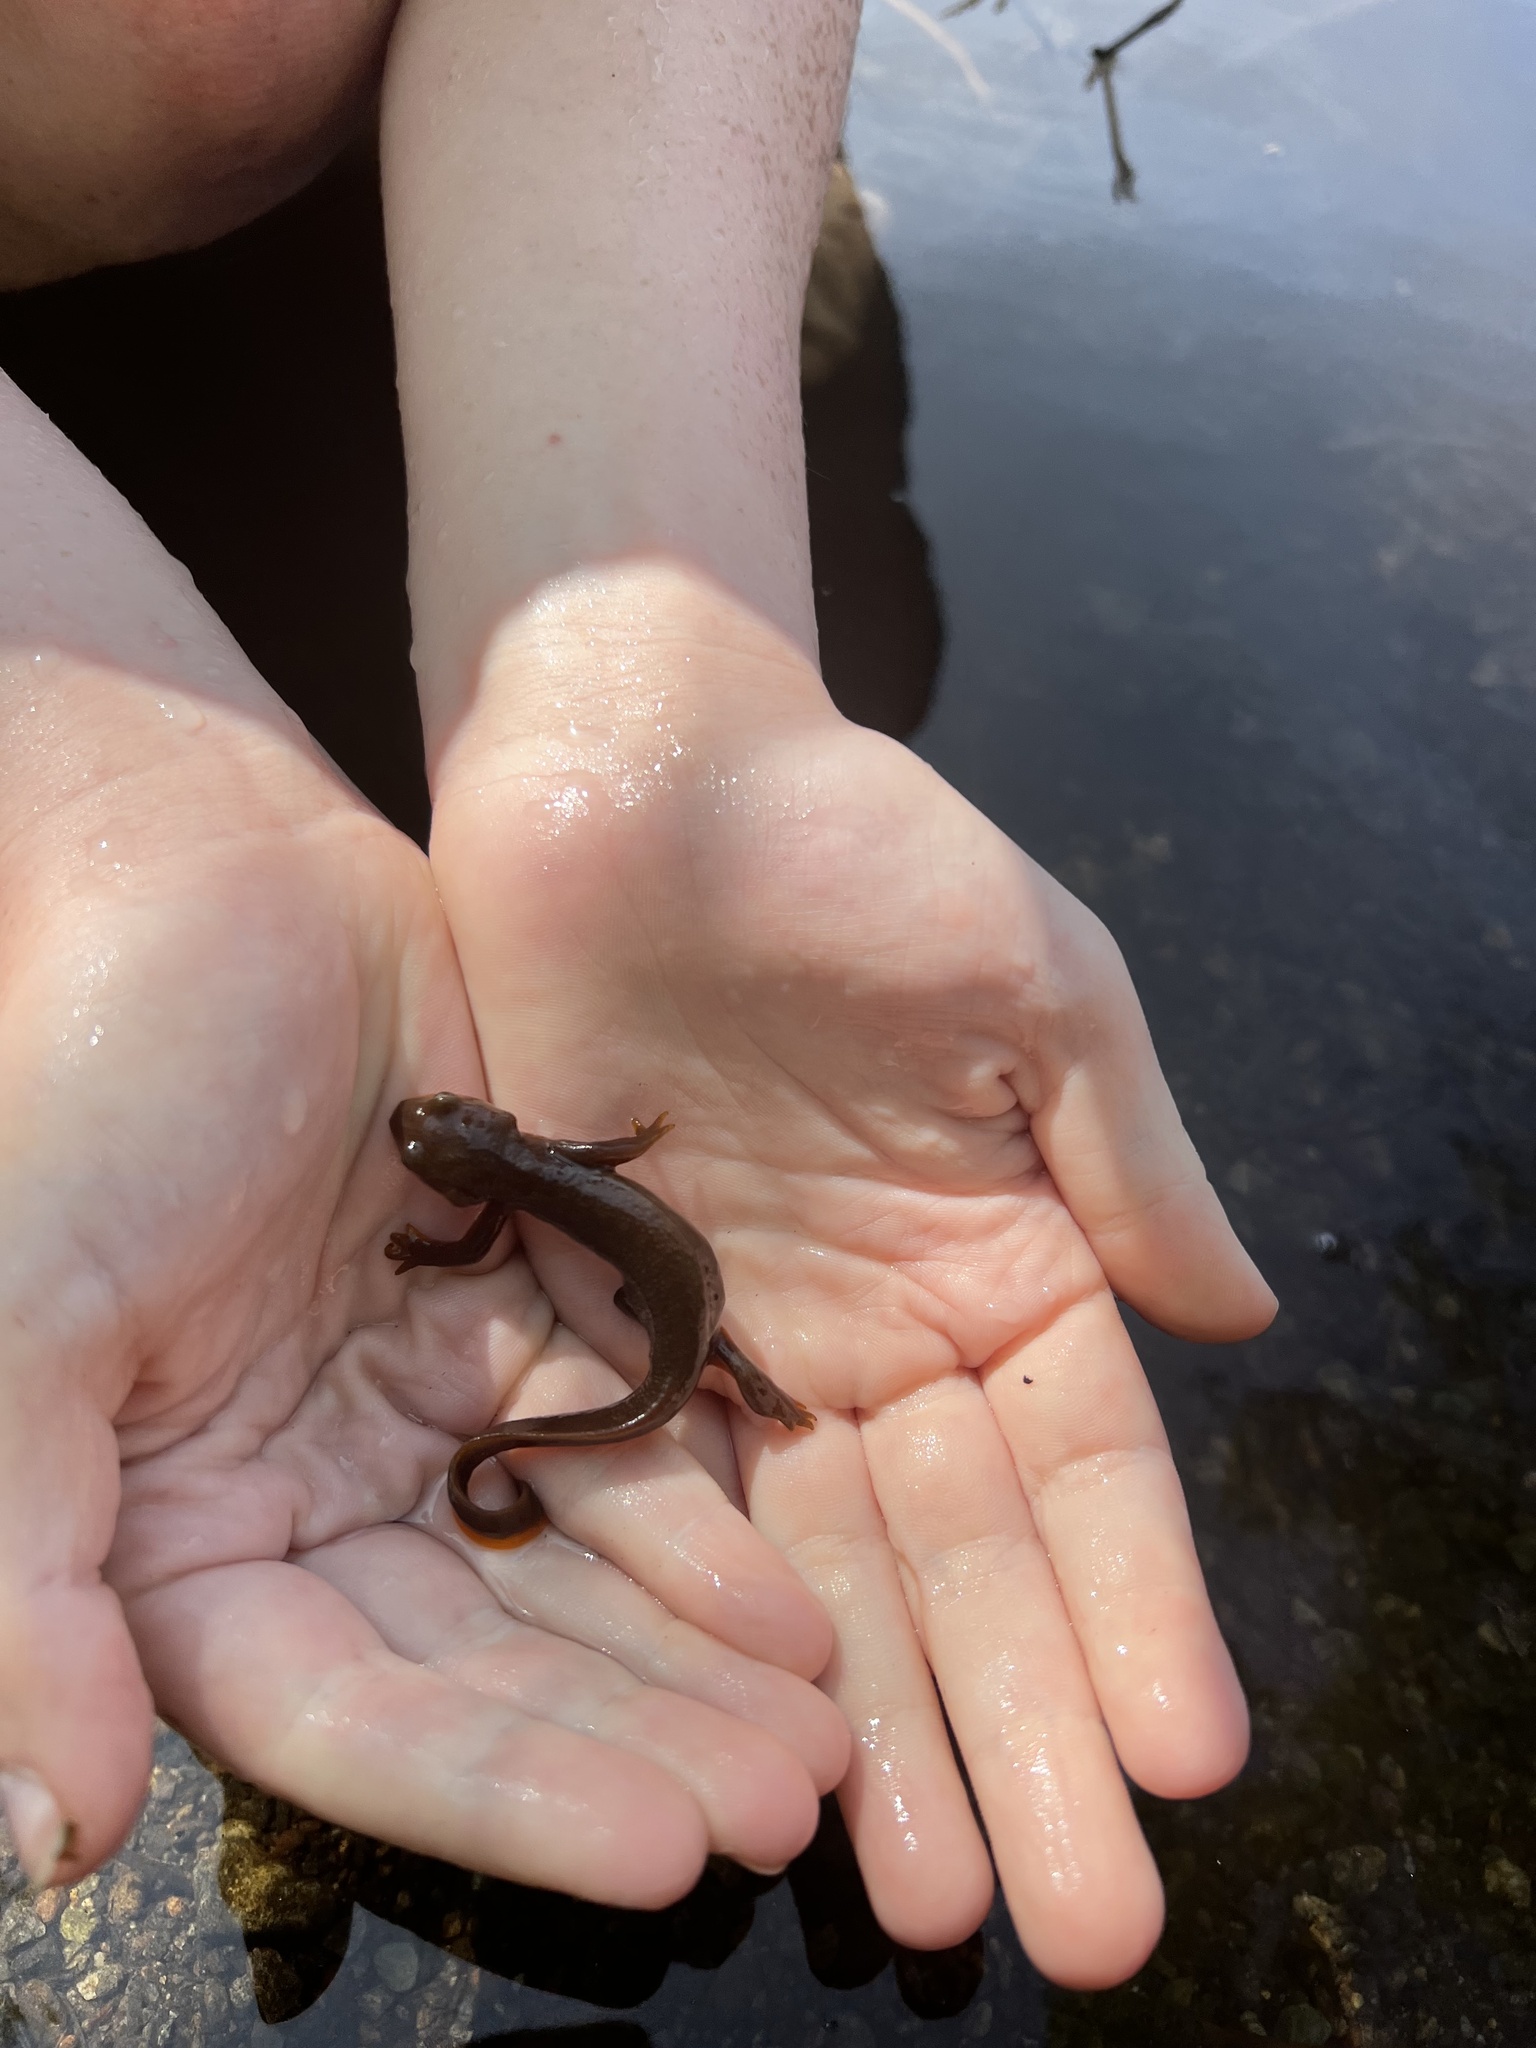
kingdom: Animalia
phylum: Chordata
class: Amphibia
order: Caudata
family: Salamandridae
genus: Taricha
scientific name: Taricha granulosa
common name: Roughskin newt
